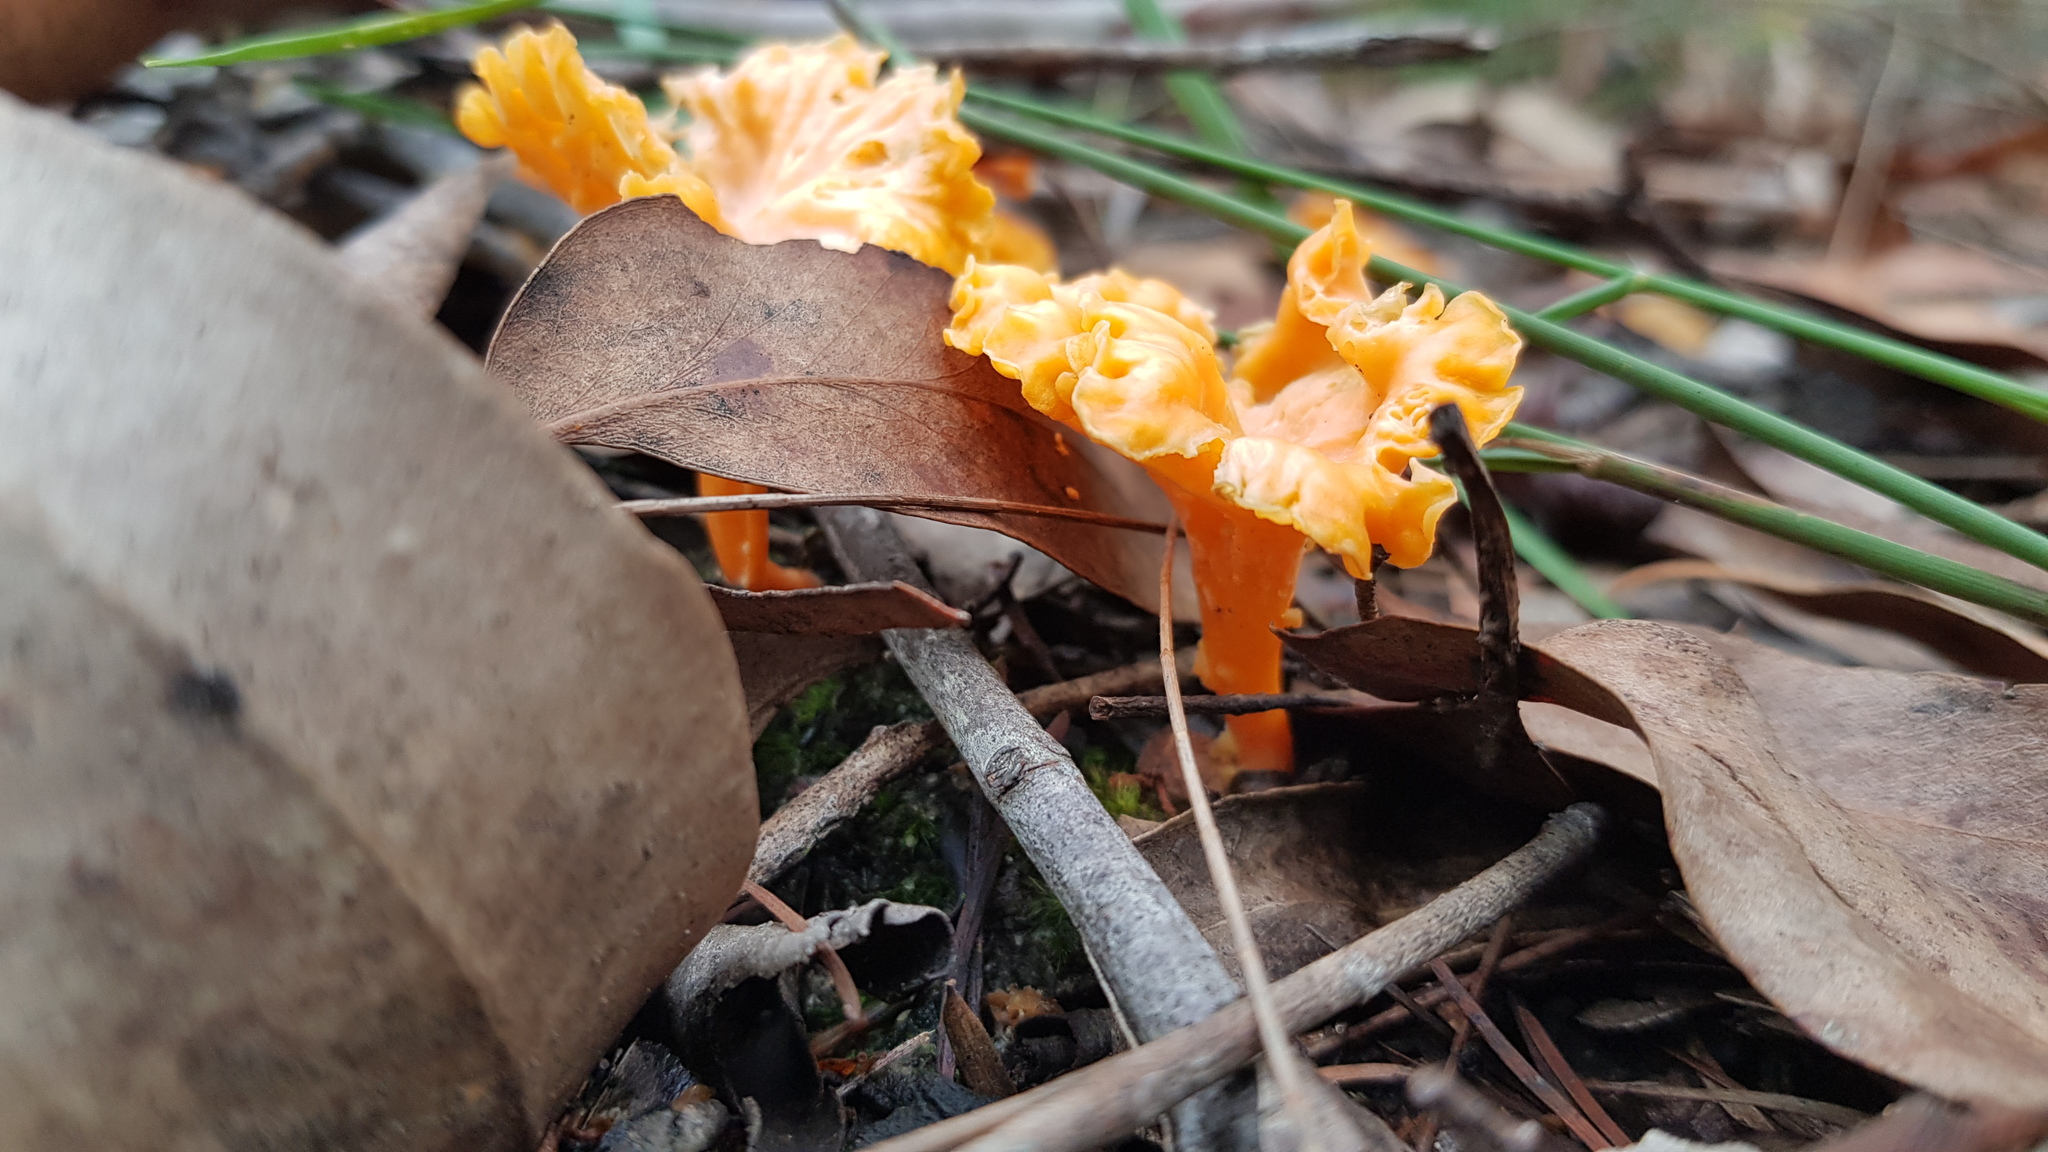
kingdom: Fungi
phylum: Basidiomycota
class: Agaricomycetes
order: Cantharellales
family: Hydnaceae
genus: Cantharellus
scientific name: Cantharellus
